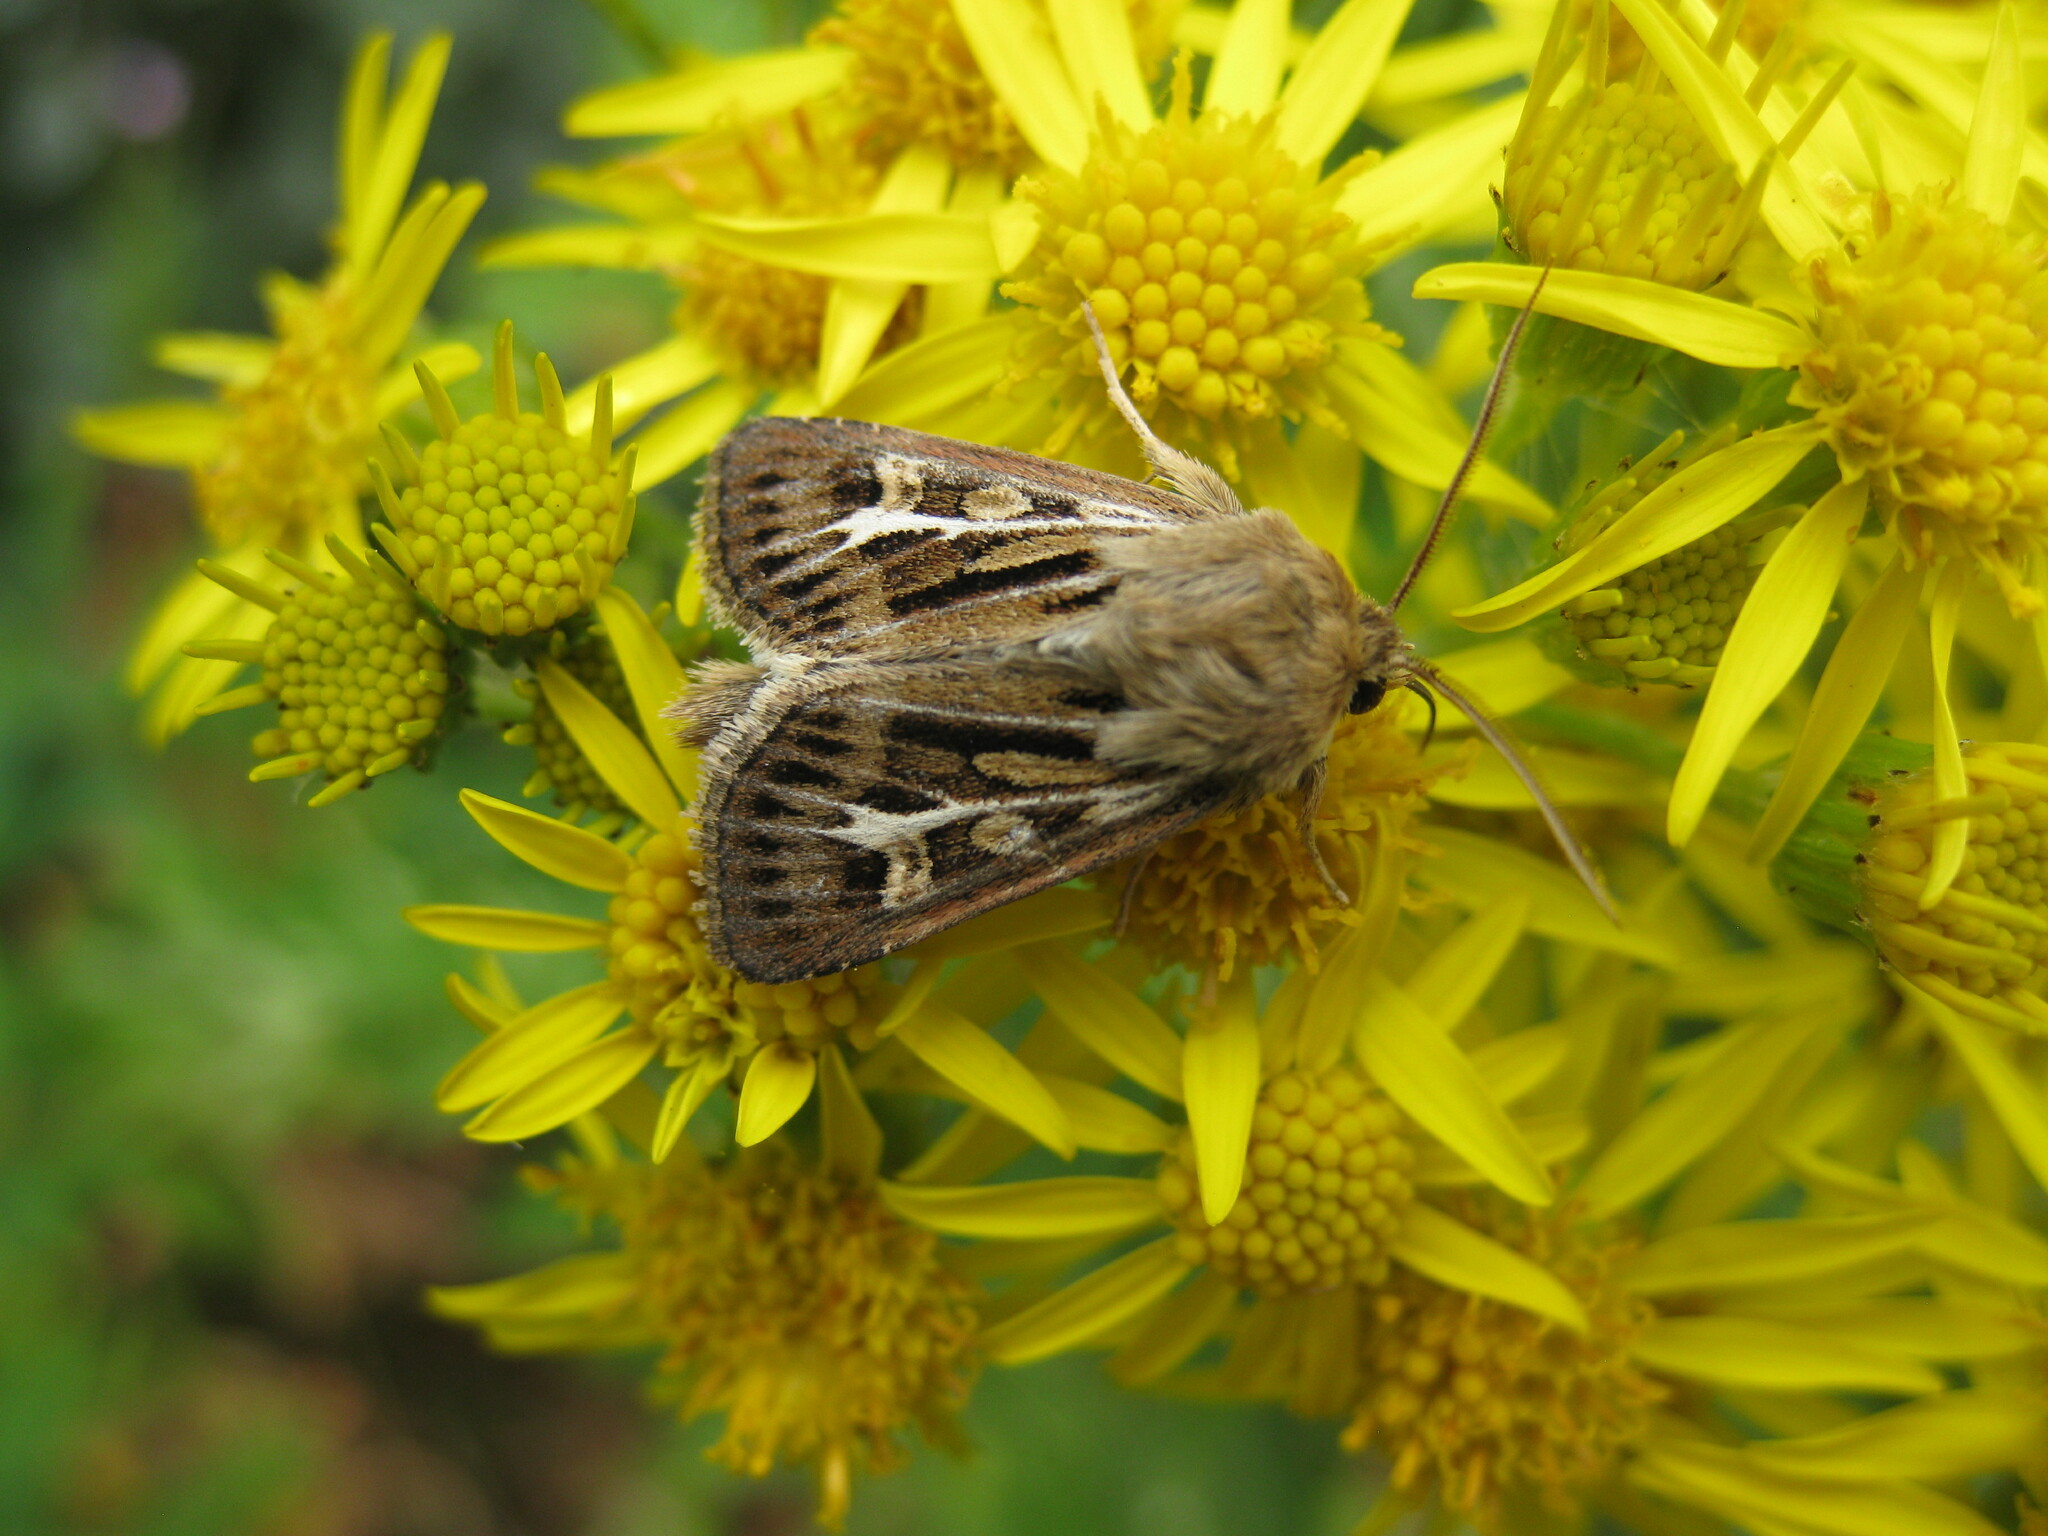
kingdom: Animalia
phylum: Arthropoda
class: Insecta
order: Lepidoptera
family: Noctuidae
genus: Cerapteryx
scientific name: Cerapteryx graminis
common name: Antler moth
